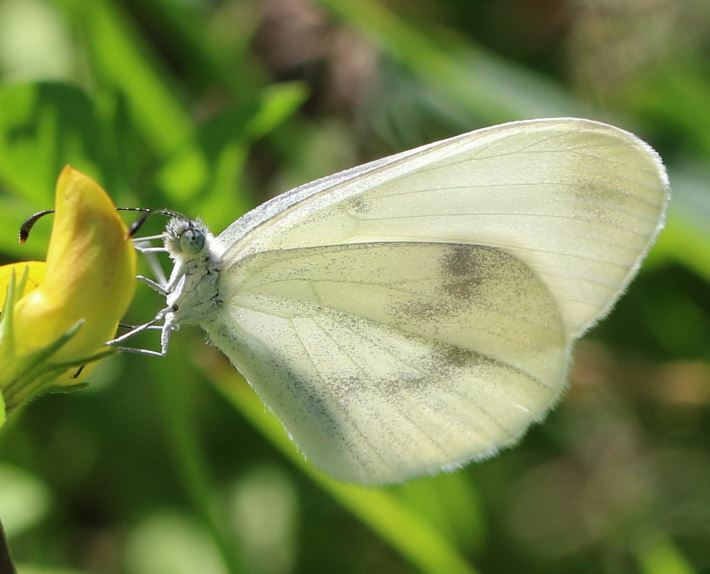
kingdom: Animalia
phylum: Arthropoda
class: Insecta
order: Lepidoptera
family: Pieridae
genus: Leptidea
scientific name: Leptidea
